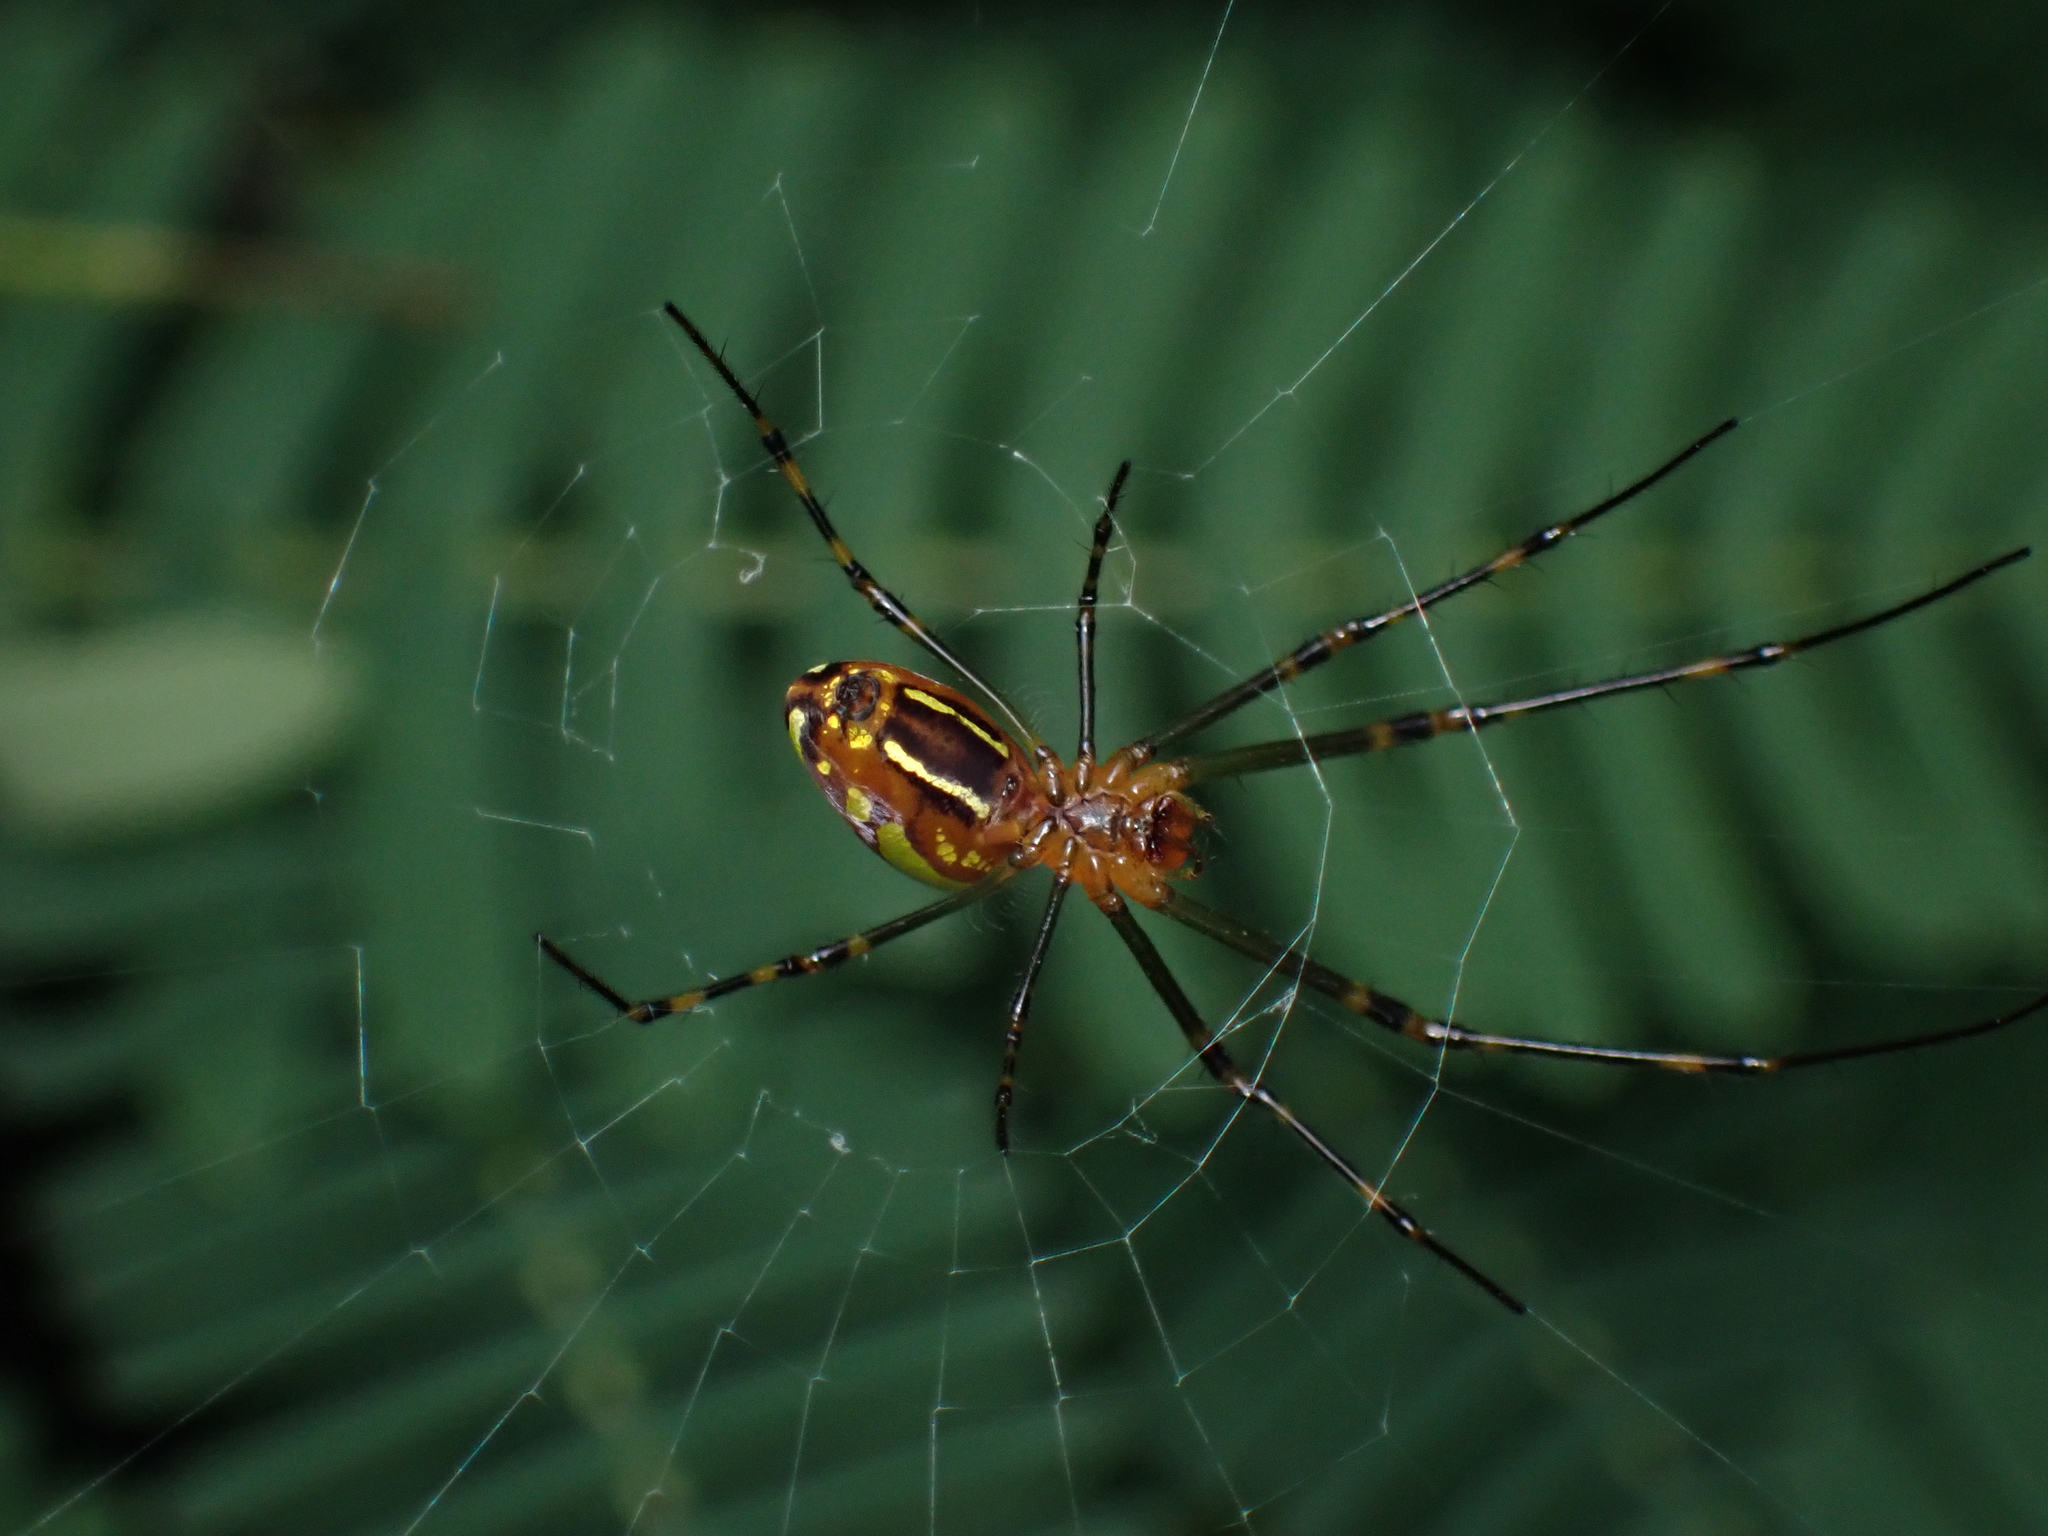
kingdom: Animalia
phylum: Arthropoda
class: Arachnida
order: Araneae
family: Tetragnathidae
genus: Leucauge
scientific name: Leucauge granulata
